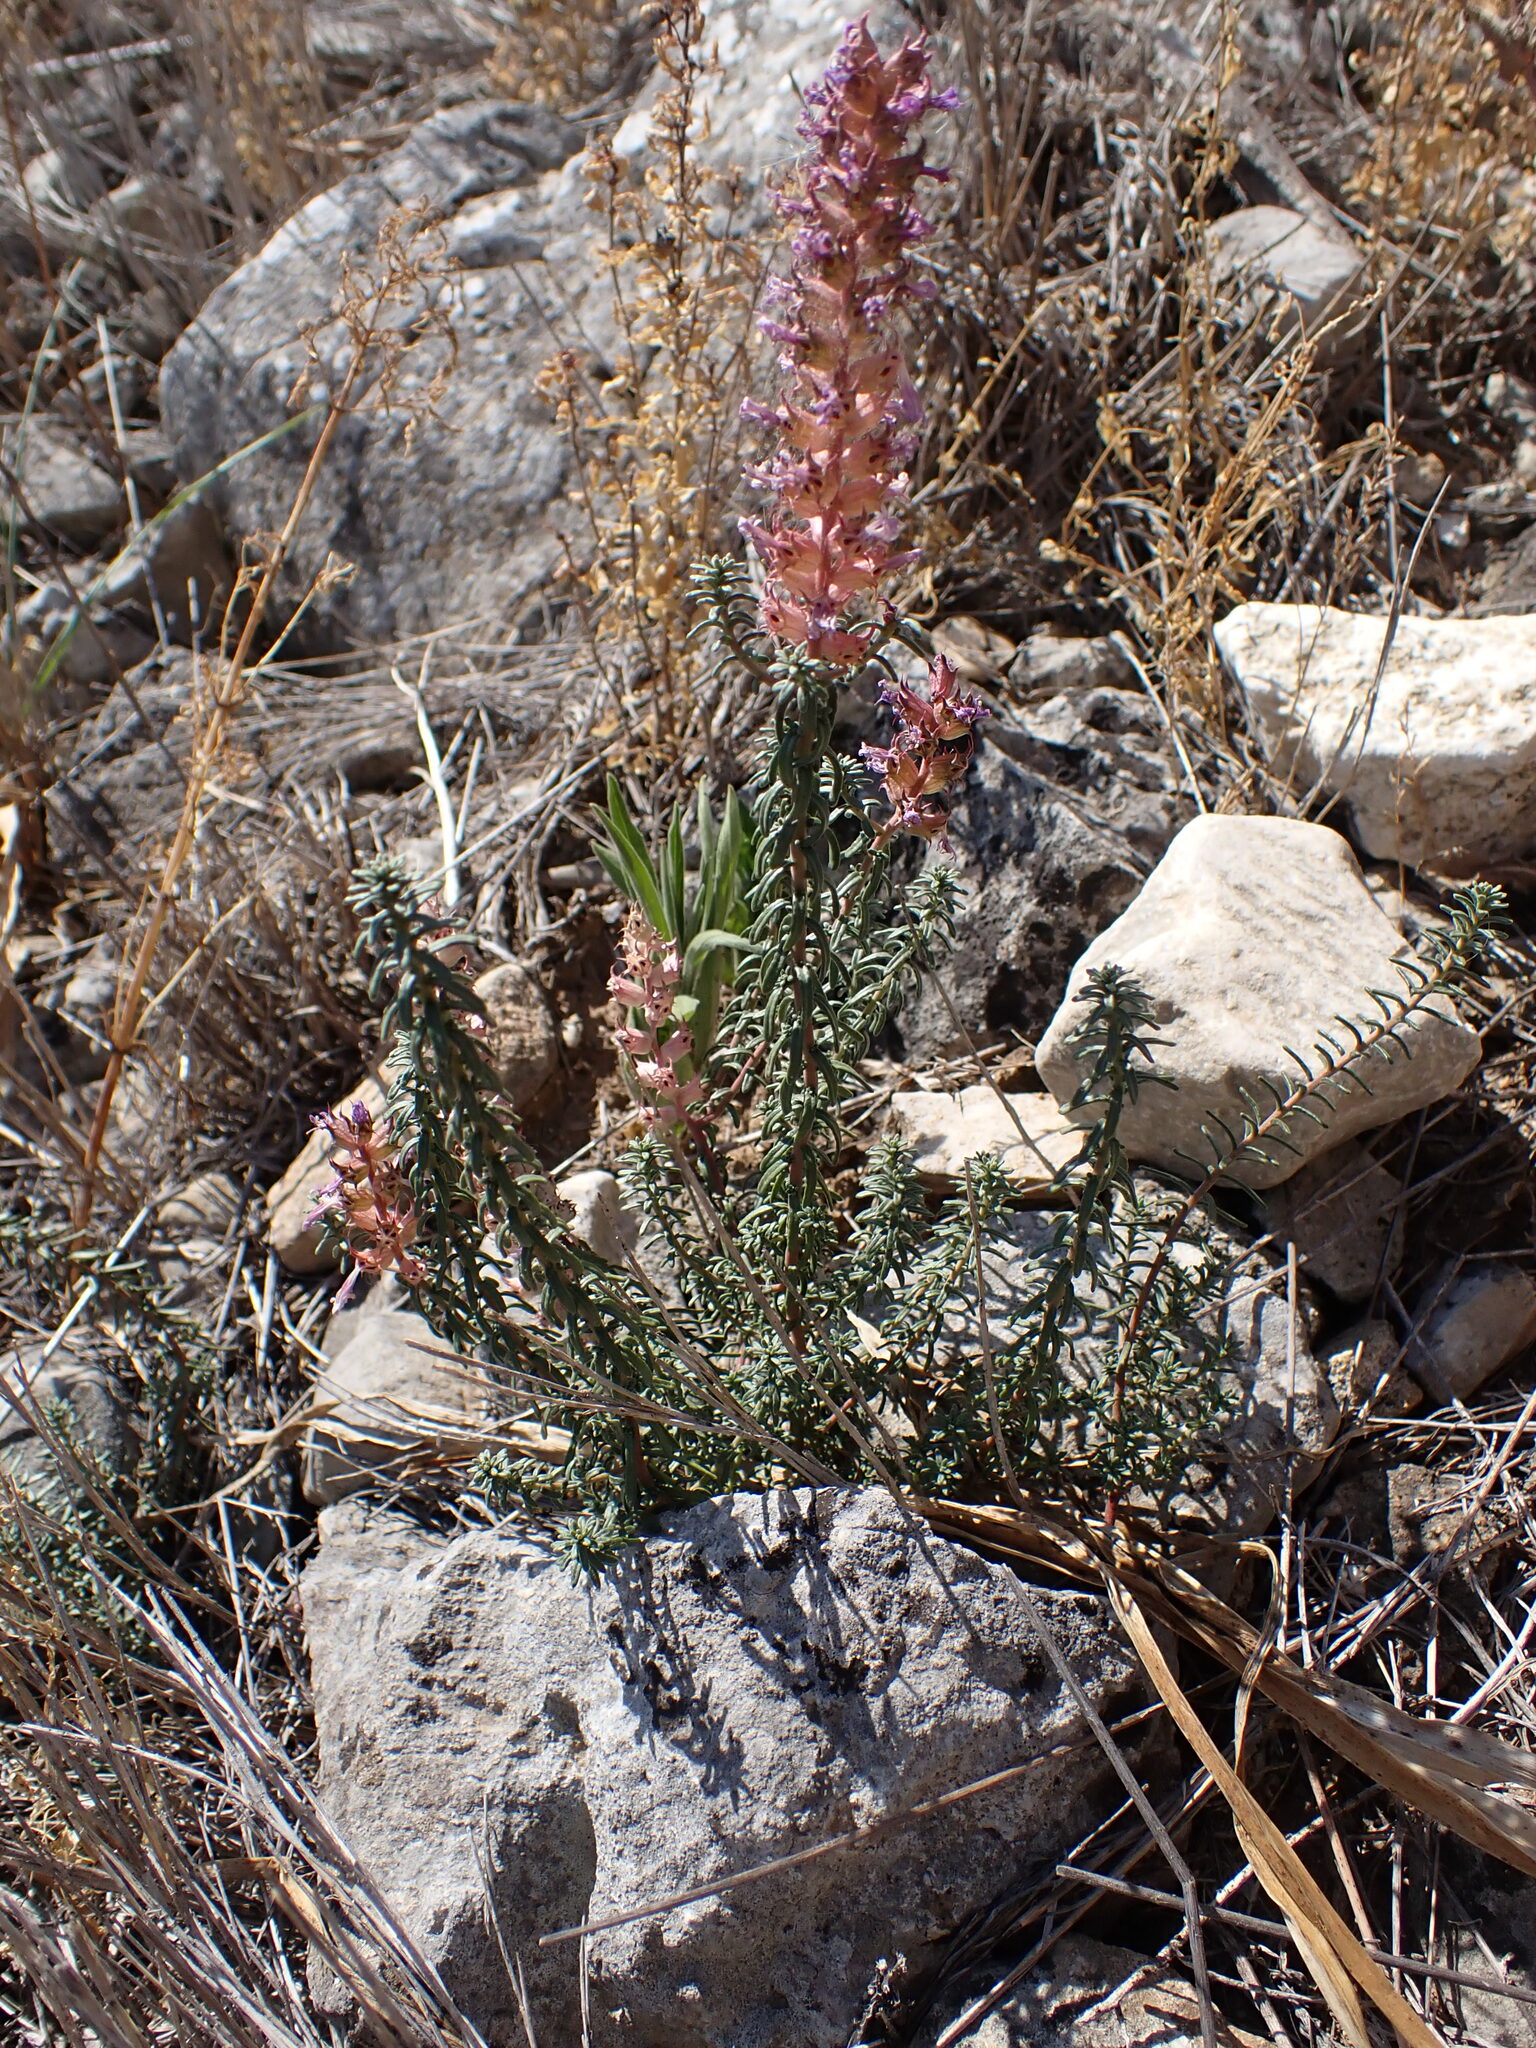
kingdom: Plantae
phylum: Tracheophyta
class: Magnoliopsida
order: Ericales
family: Primulaceae
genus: Coris
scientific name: Coris monspeliensis
